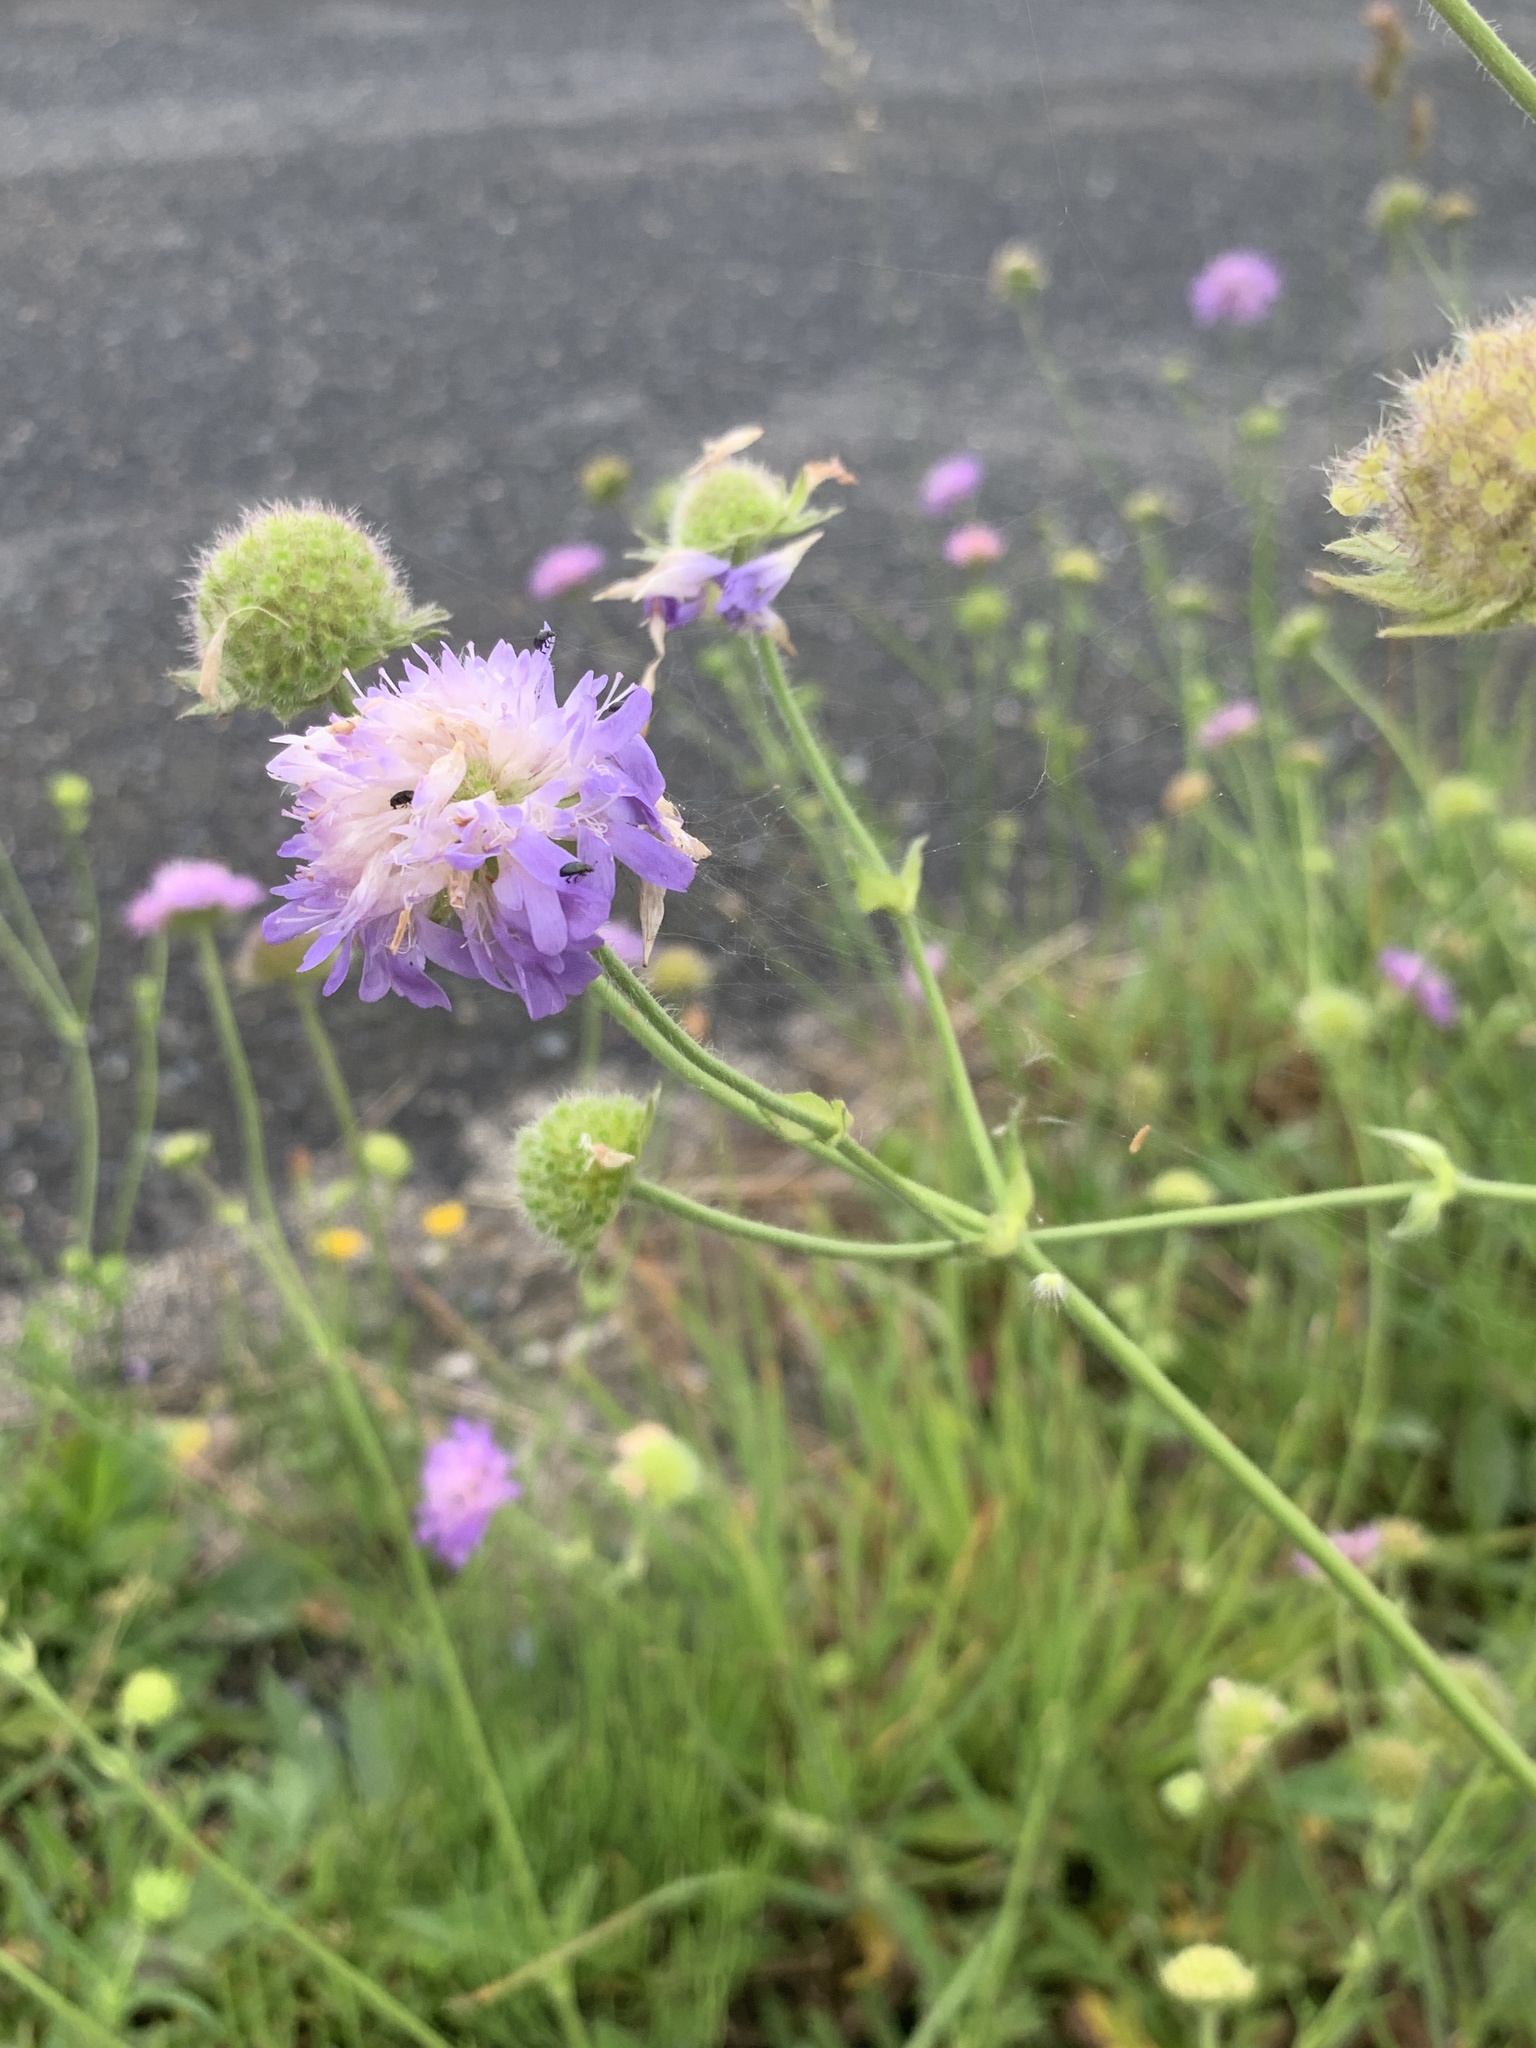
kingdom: Plantae
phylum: Tracheophyta
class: Magnoliopsida
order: Dipsacales
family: Caprifoliaceae
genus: Knautia
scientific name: Knautia arvensis
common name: Field scabiosa
